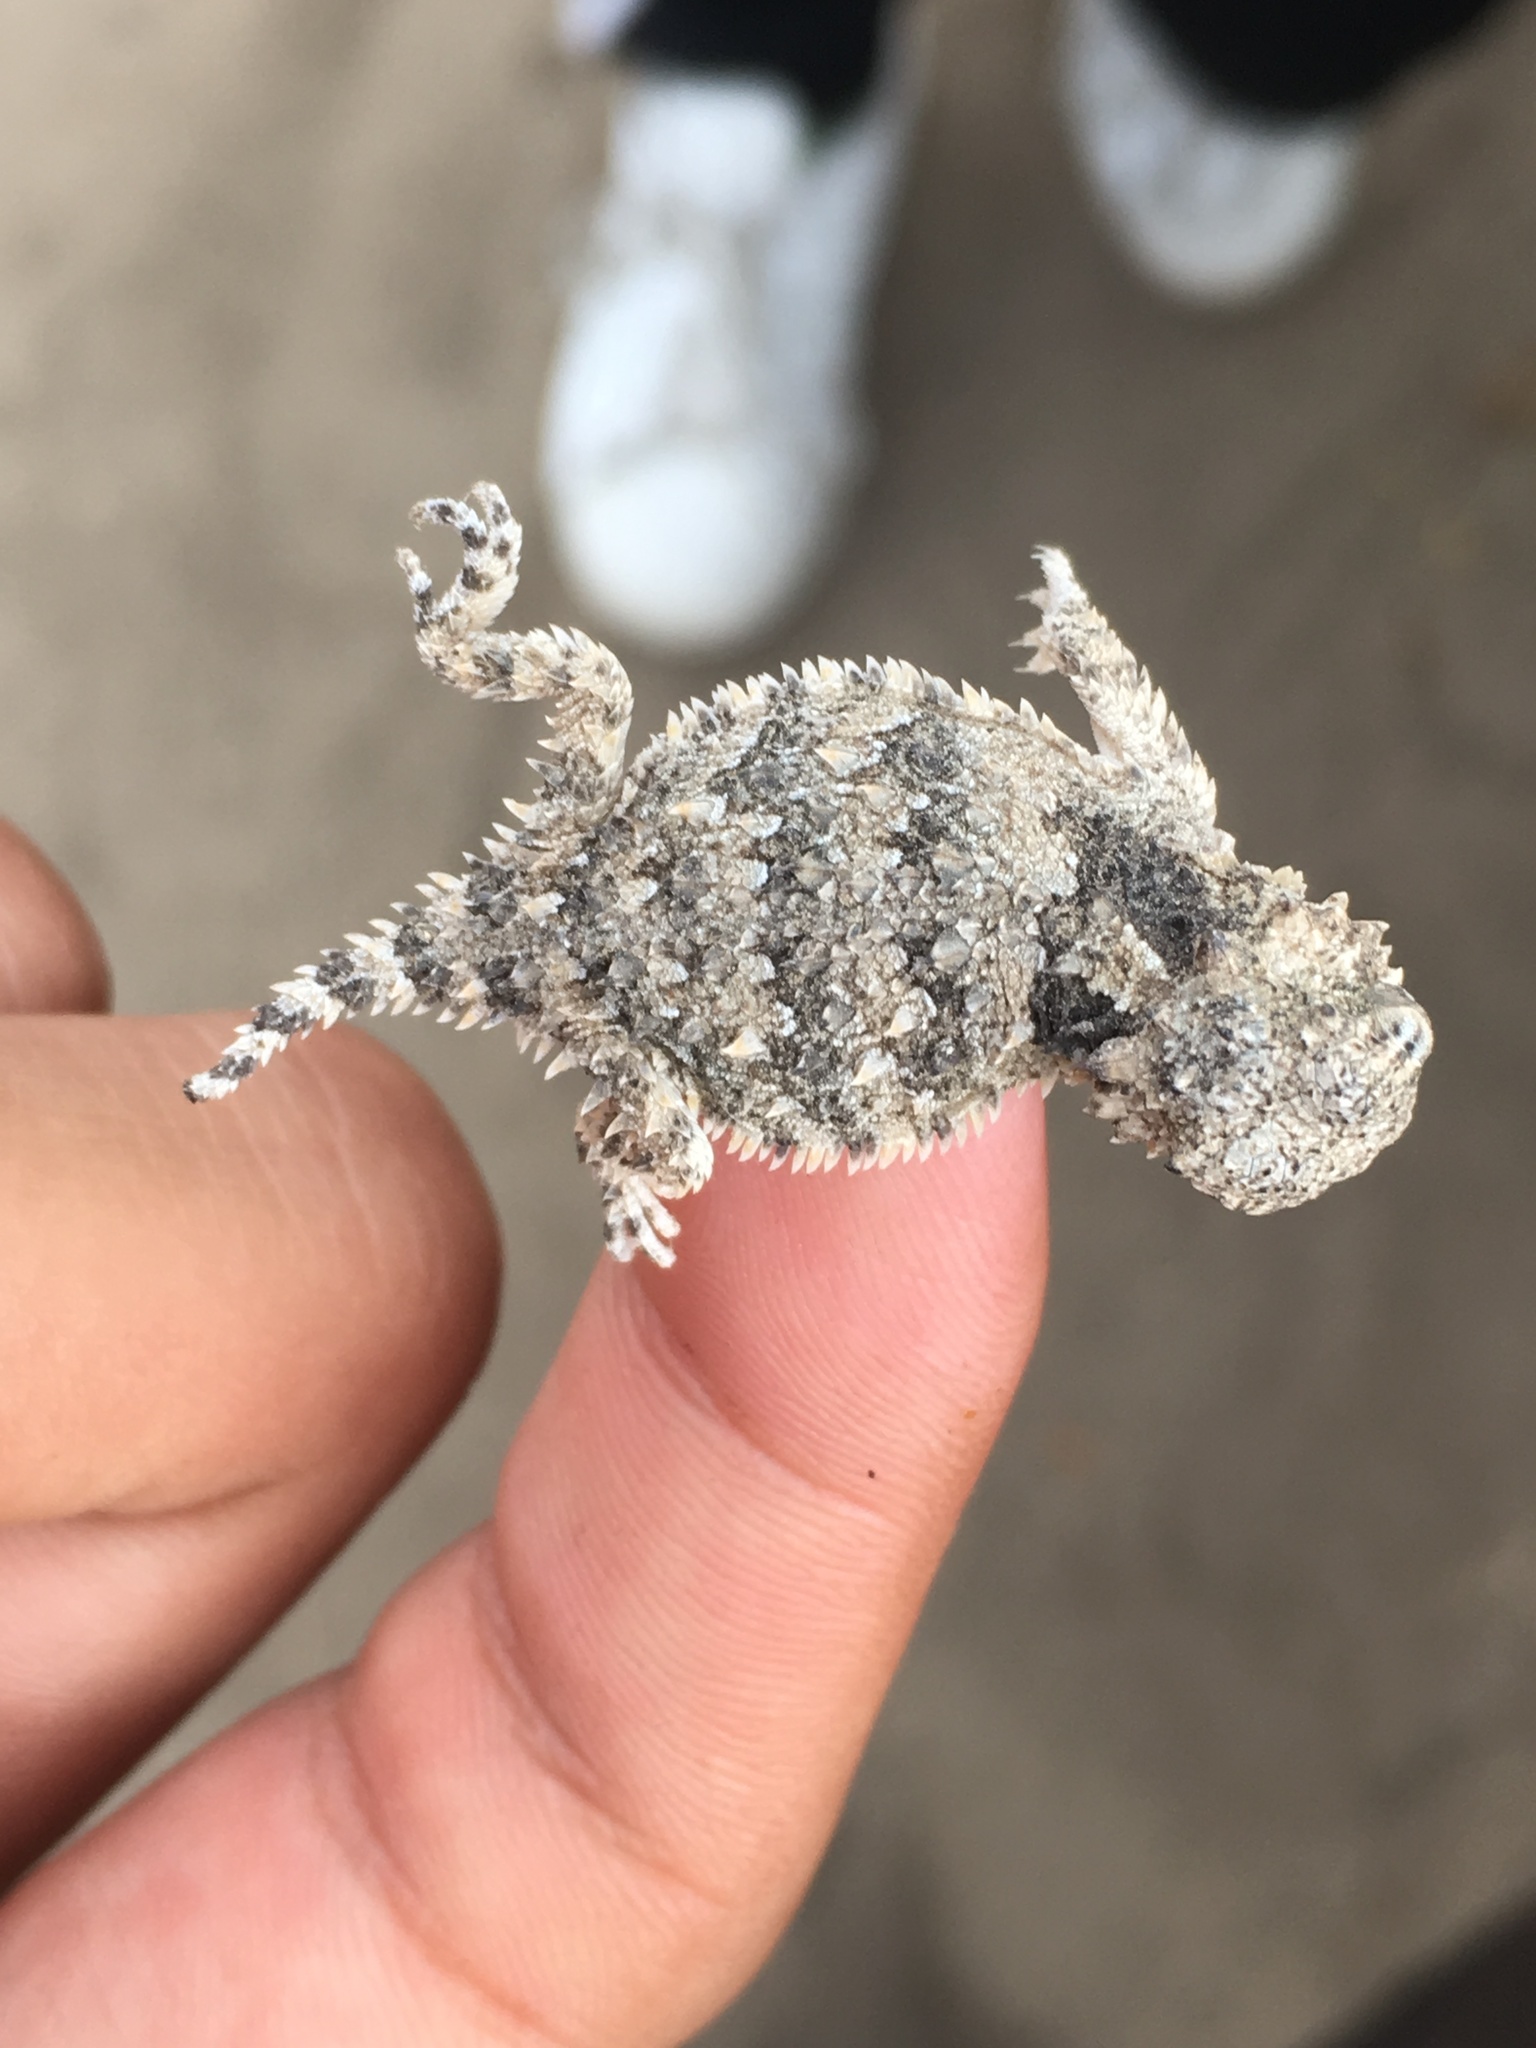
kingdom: Animalia
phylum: Chordata
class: Squamata
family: Phrynosomatidae
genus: Phrynosoma
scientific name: Phrynosoma blainvillii
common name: San diego horned lizard
